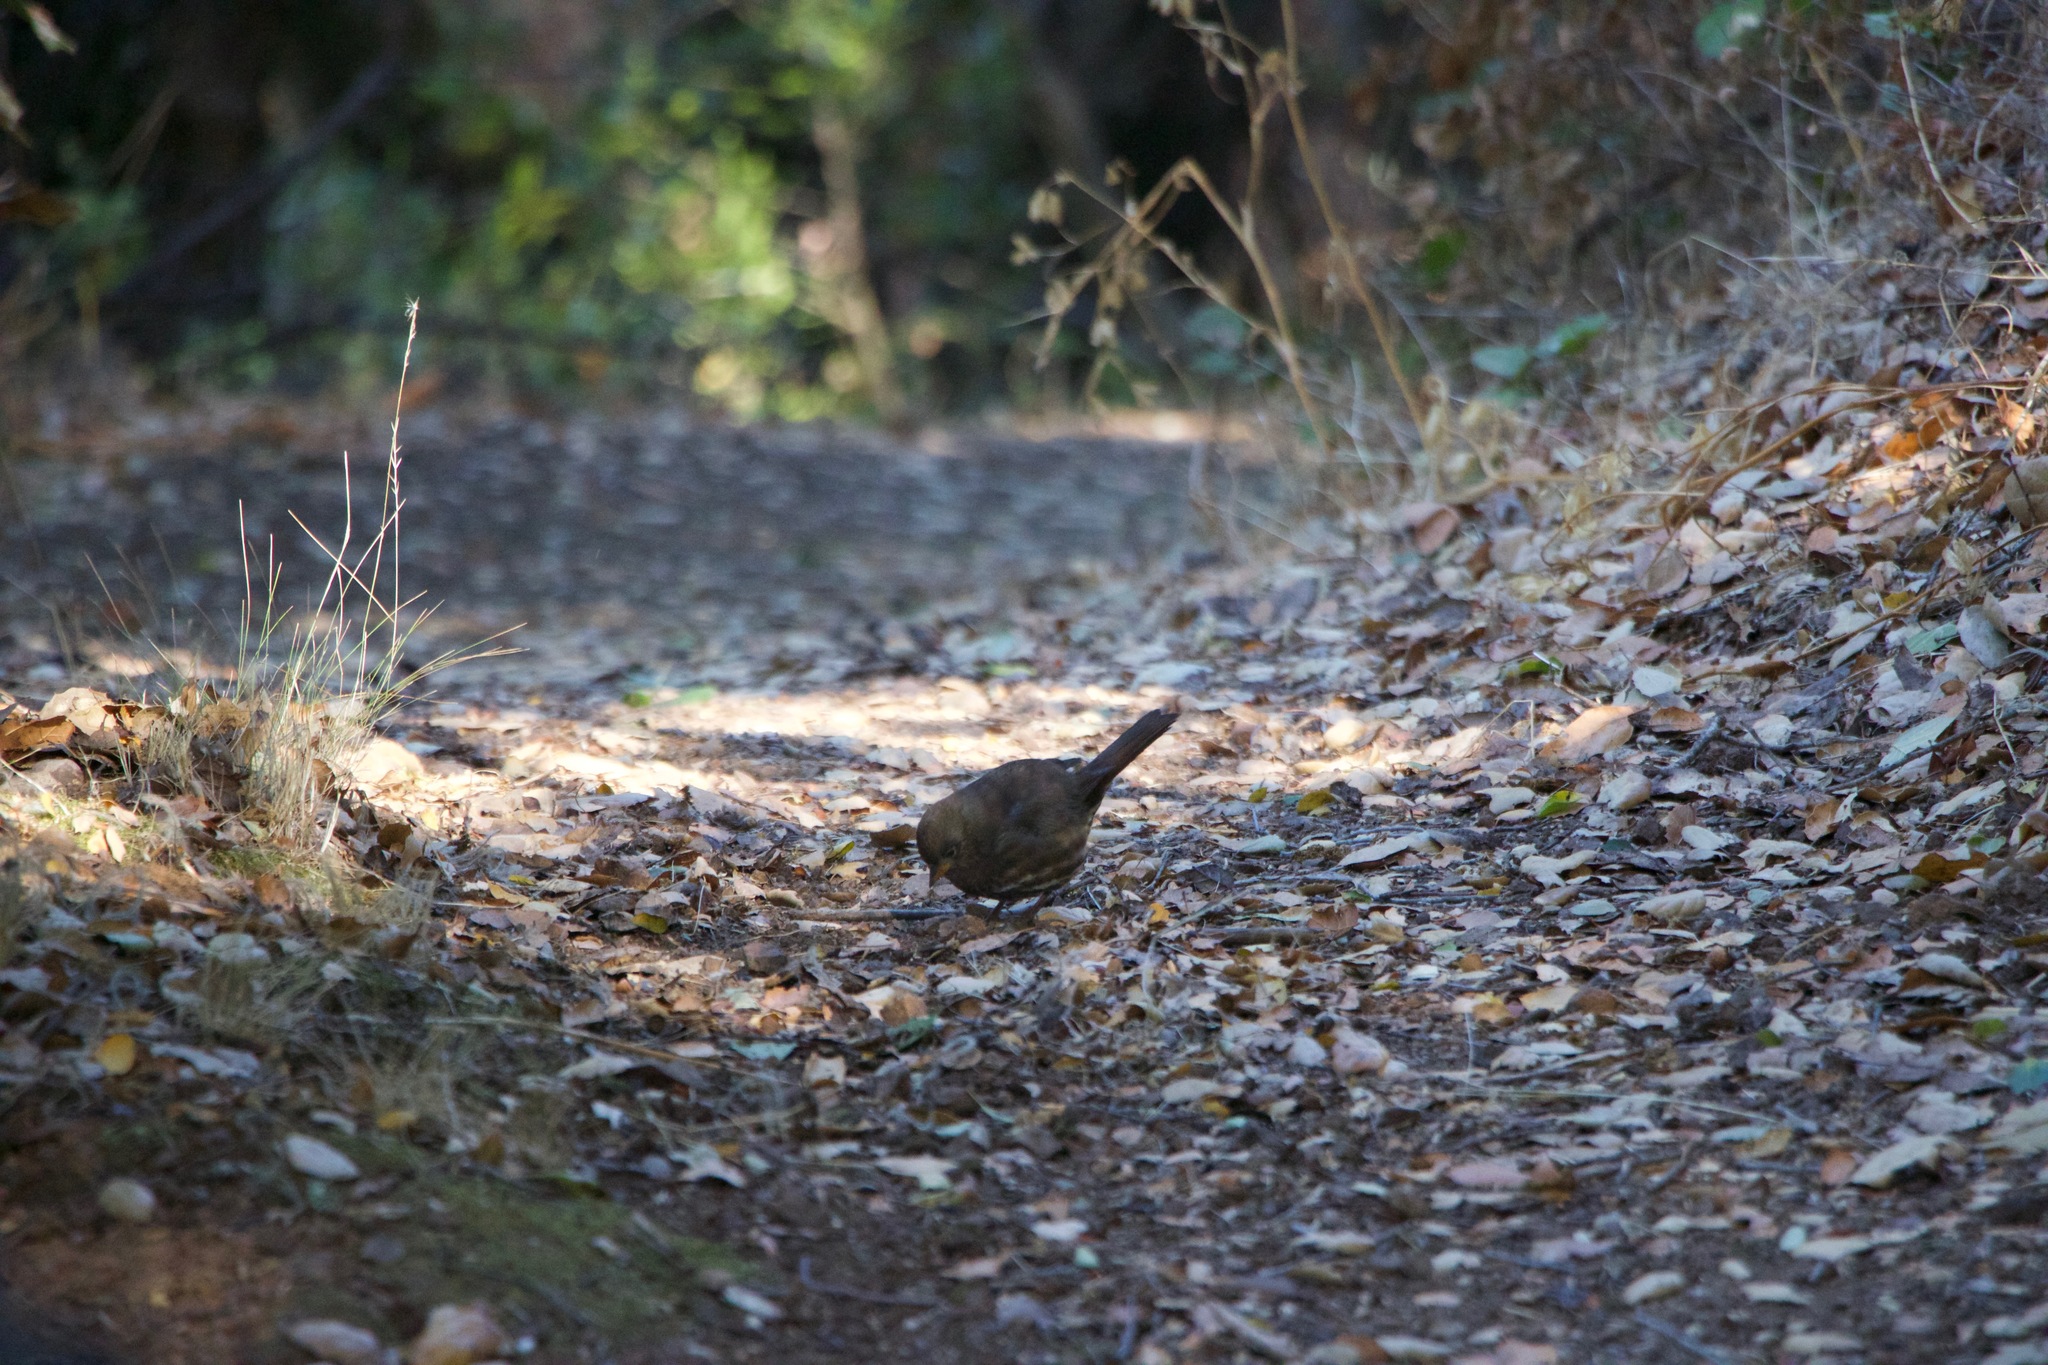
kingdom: Animalia
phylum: Chordata
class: Aves
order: Passeriformes
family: Passerellidae
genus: Passerella
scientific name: Passerella iliaca
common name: Fox sparrow
